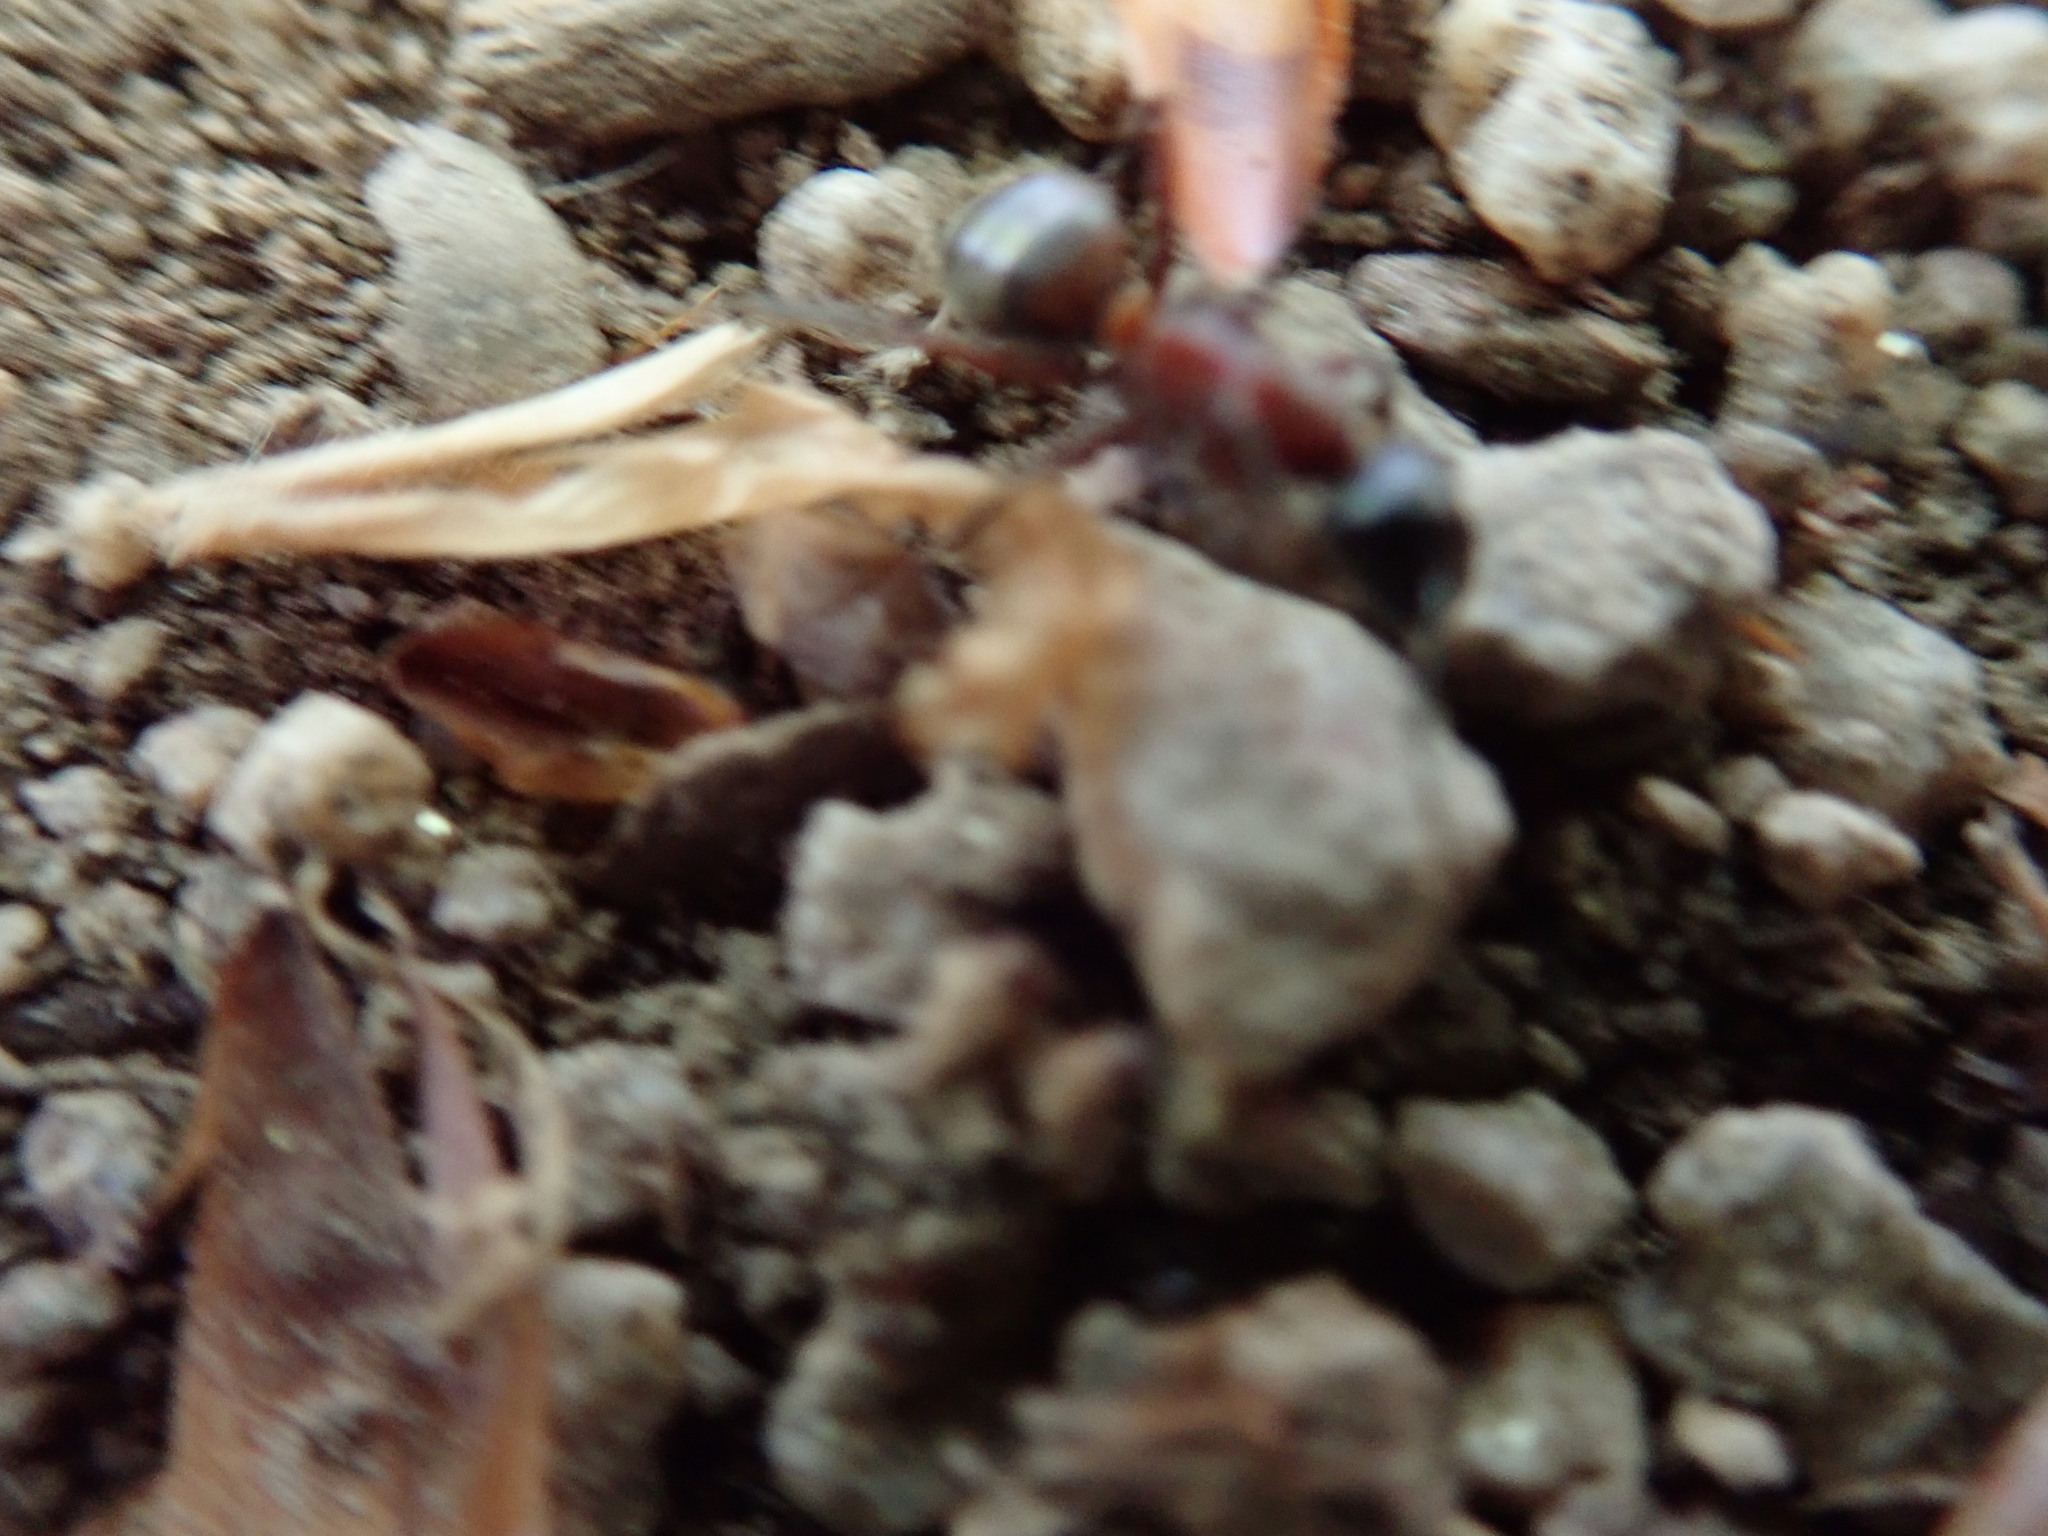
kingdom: Animalia
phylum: Arthropoda
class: Insecta
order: Hymenoptera
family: Formicidae
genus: Camponotus
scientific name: Camponotus ligniperdus
